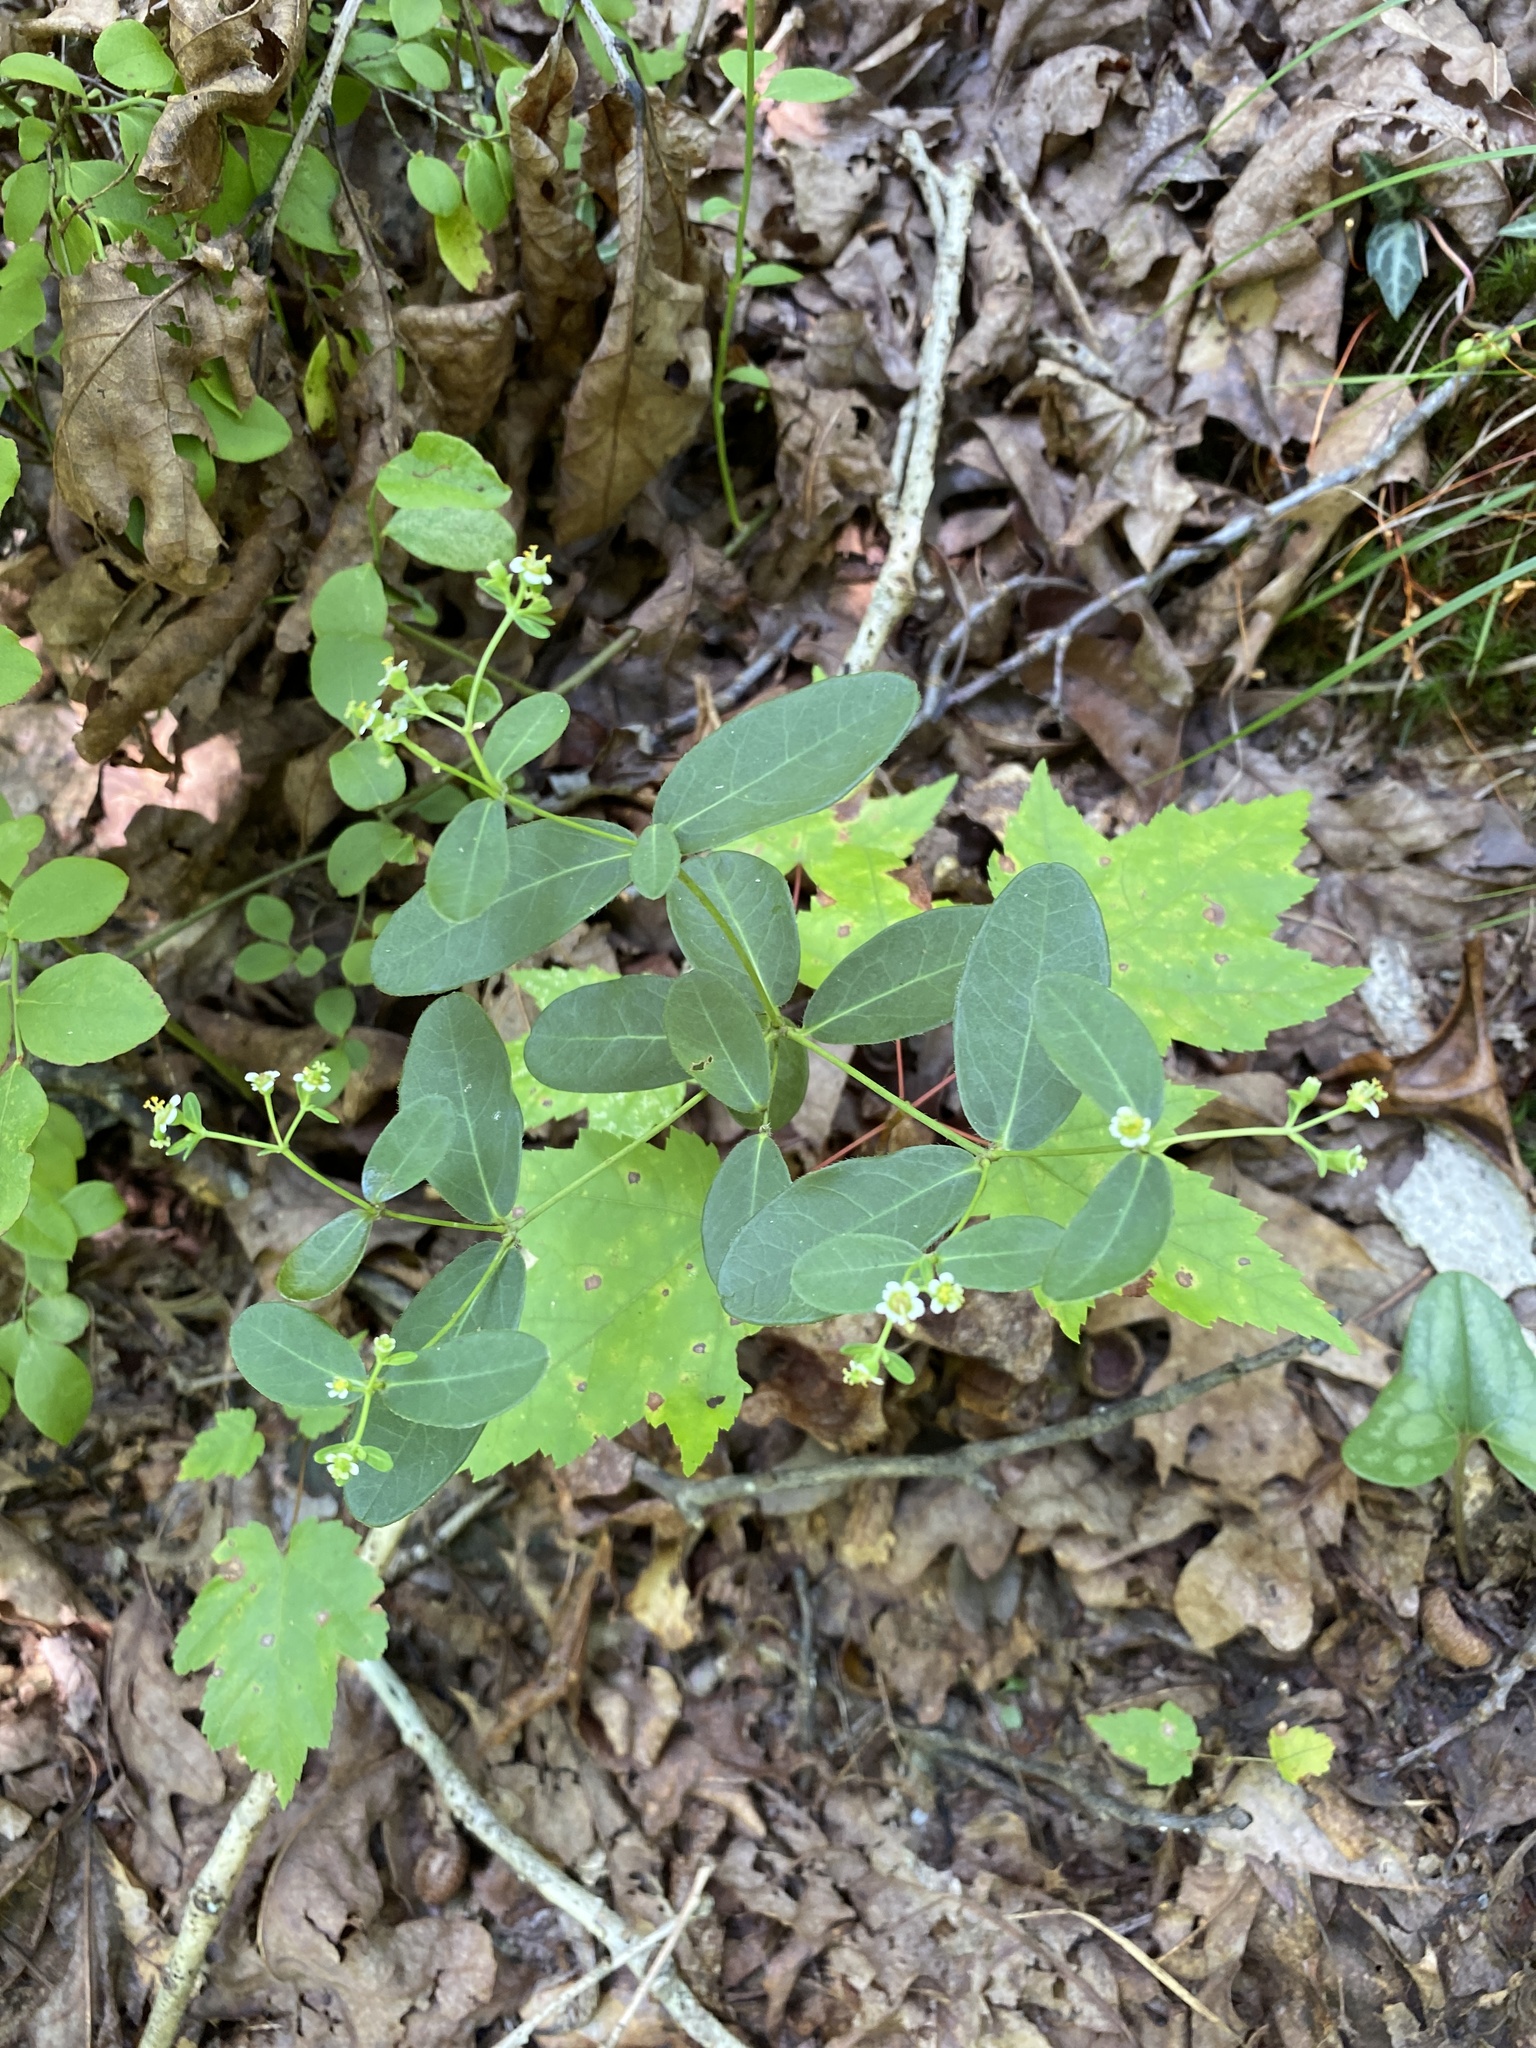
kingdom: Plantae
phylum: Tracheophyta
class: Magnoliopsida
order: Malpighiales
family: Euphorbiaceae
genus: Euphorbia
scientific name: Euphorbia corollata
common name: Flowering spurge
